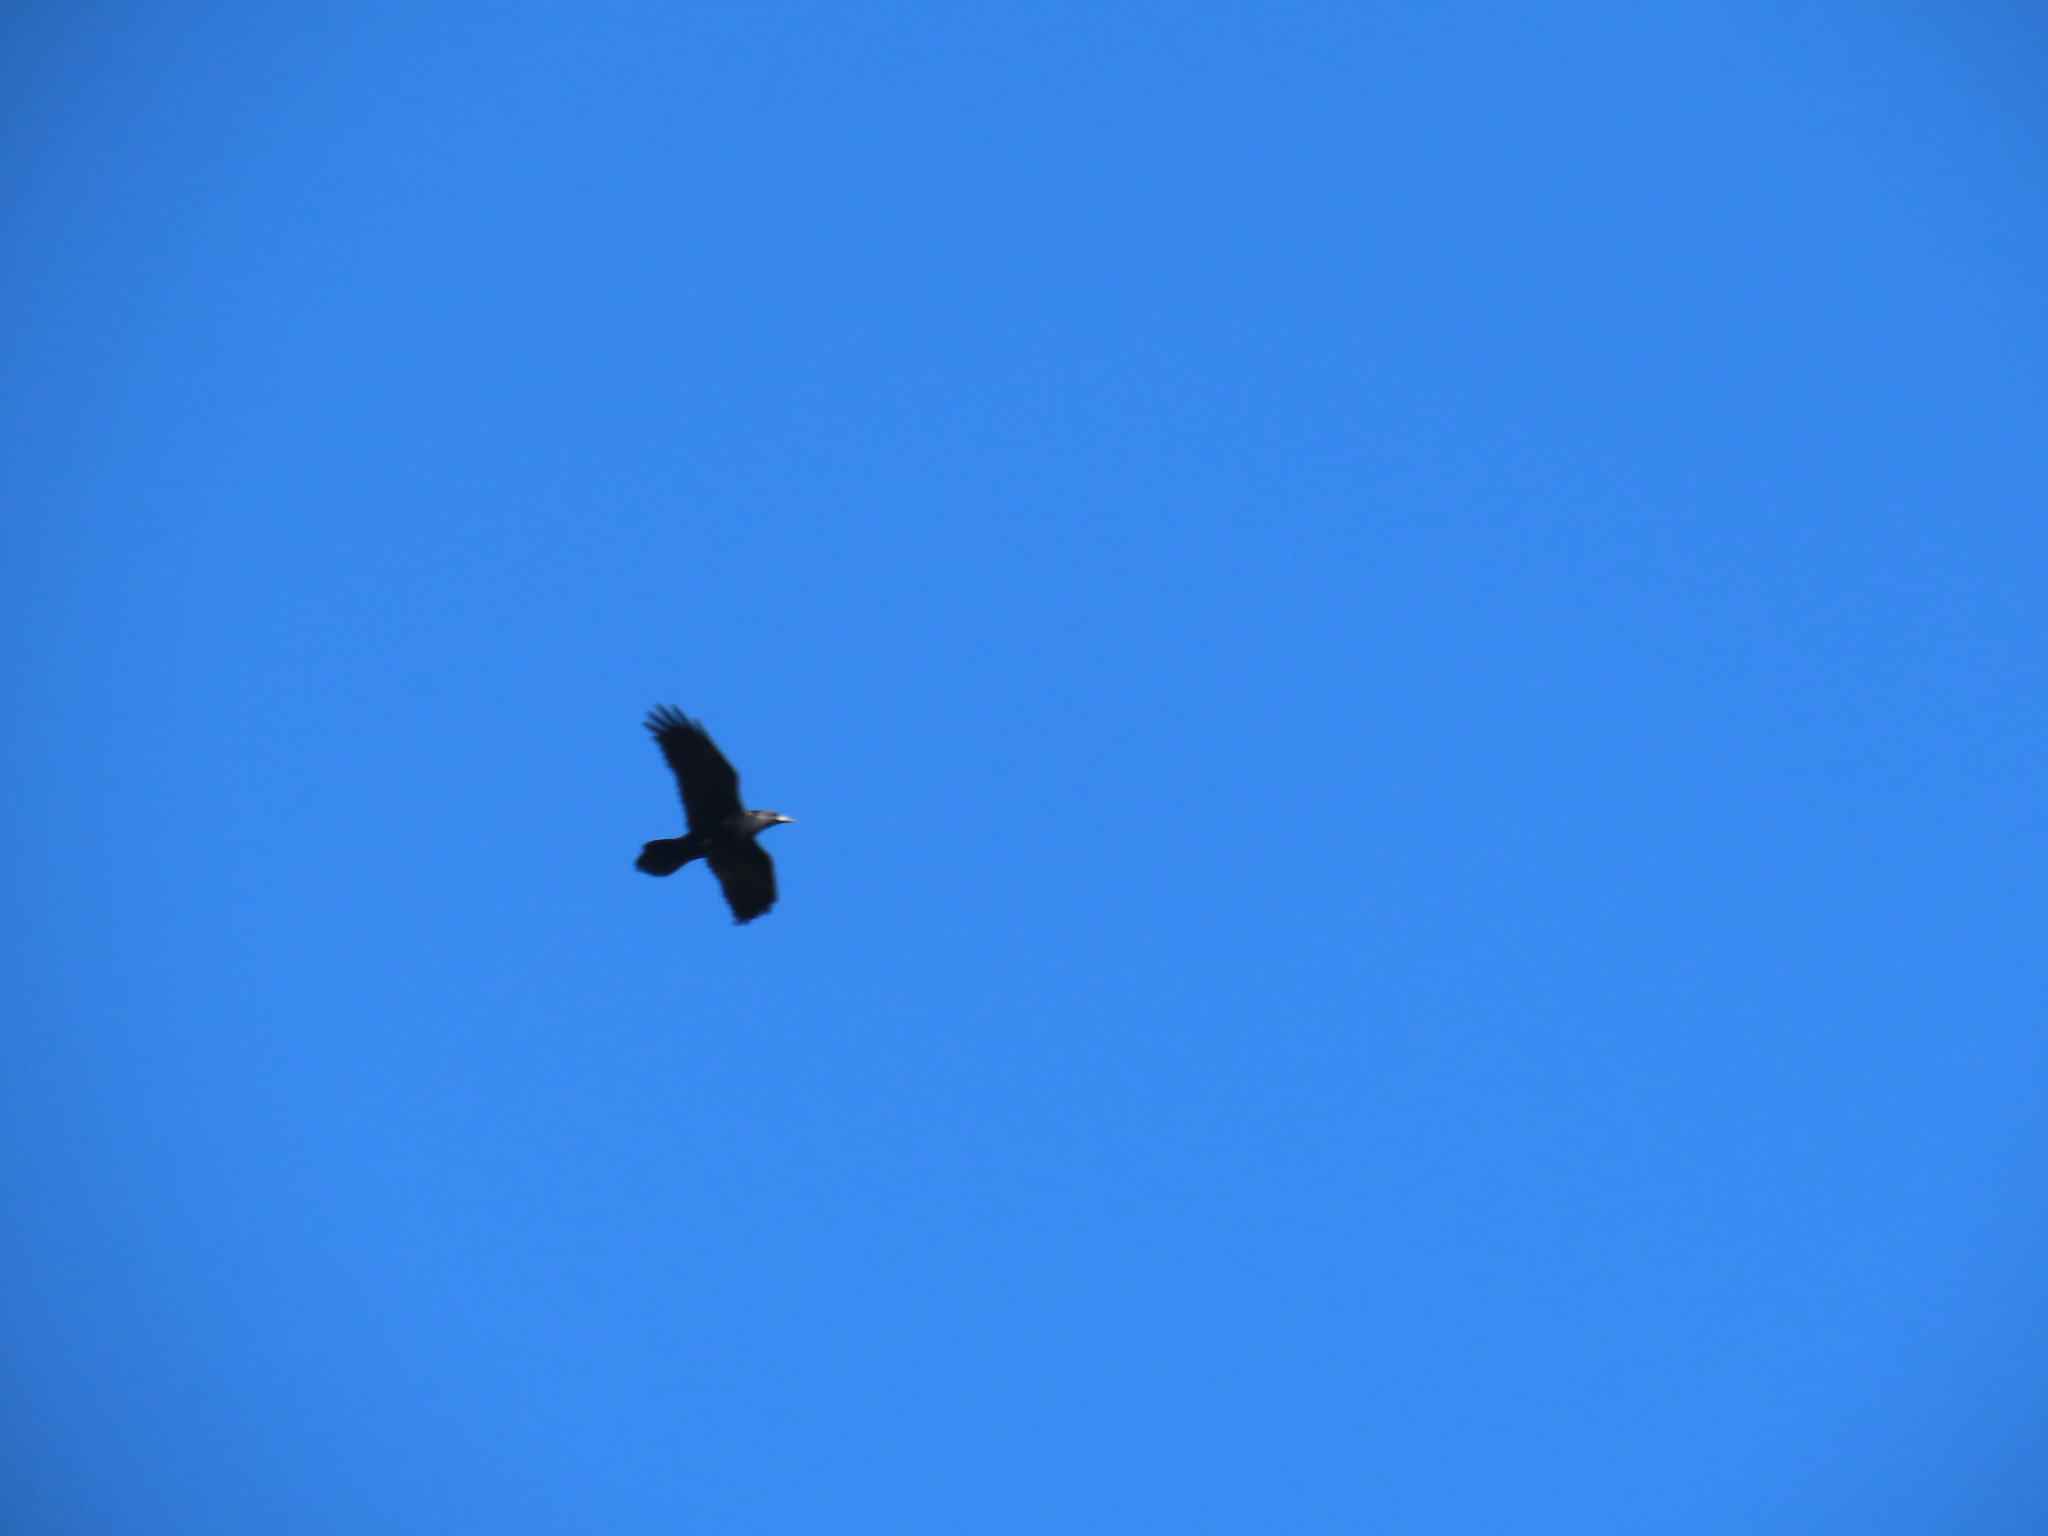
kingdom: Animalia
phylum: Chordata
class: Aves
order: Passeriformes
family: Corvidae
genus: Corvus
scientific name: Corvus corax
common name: Common raven
